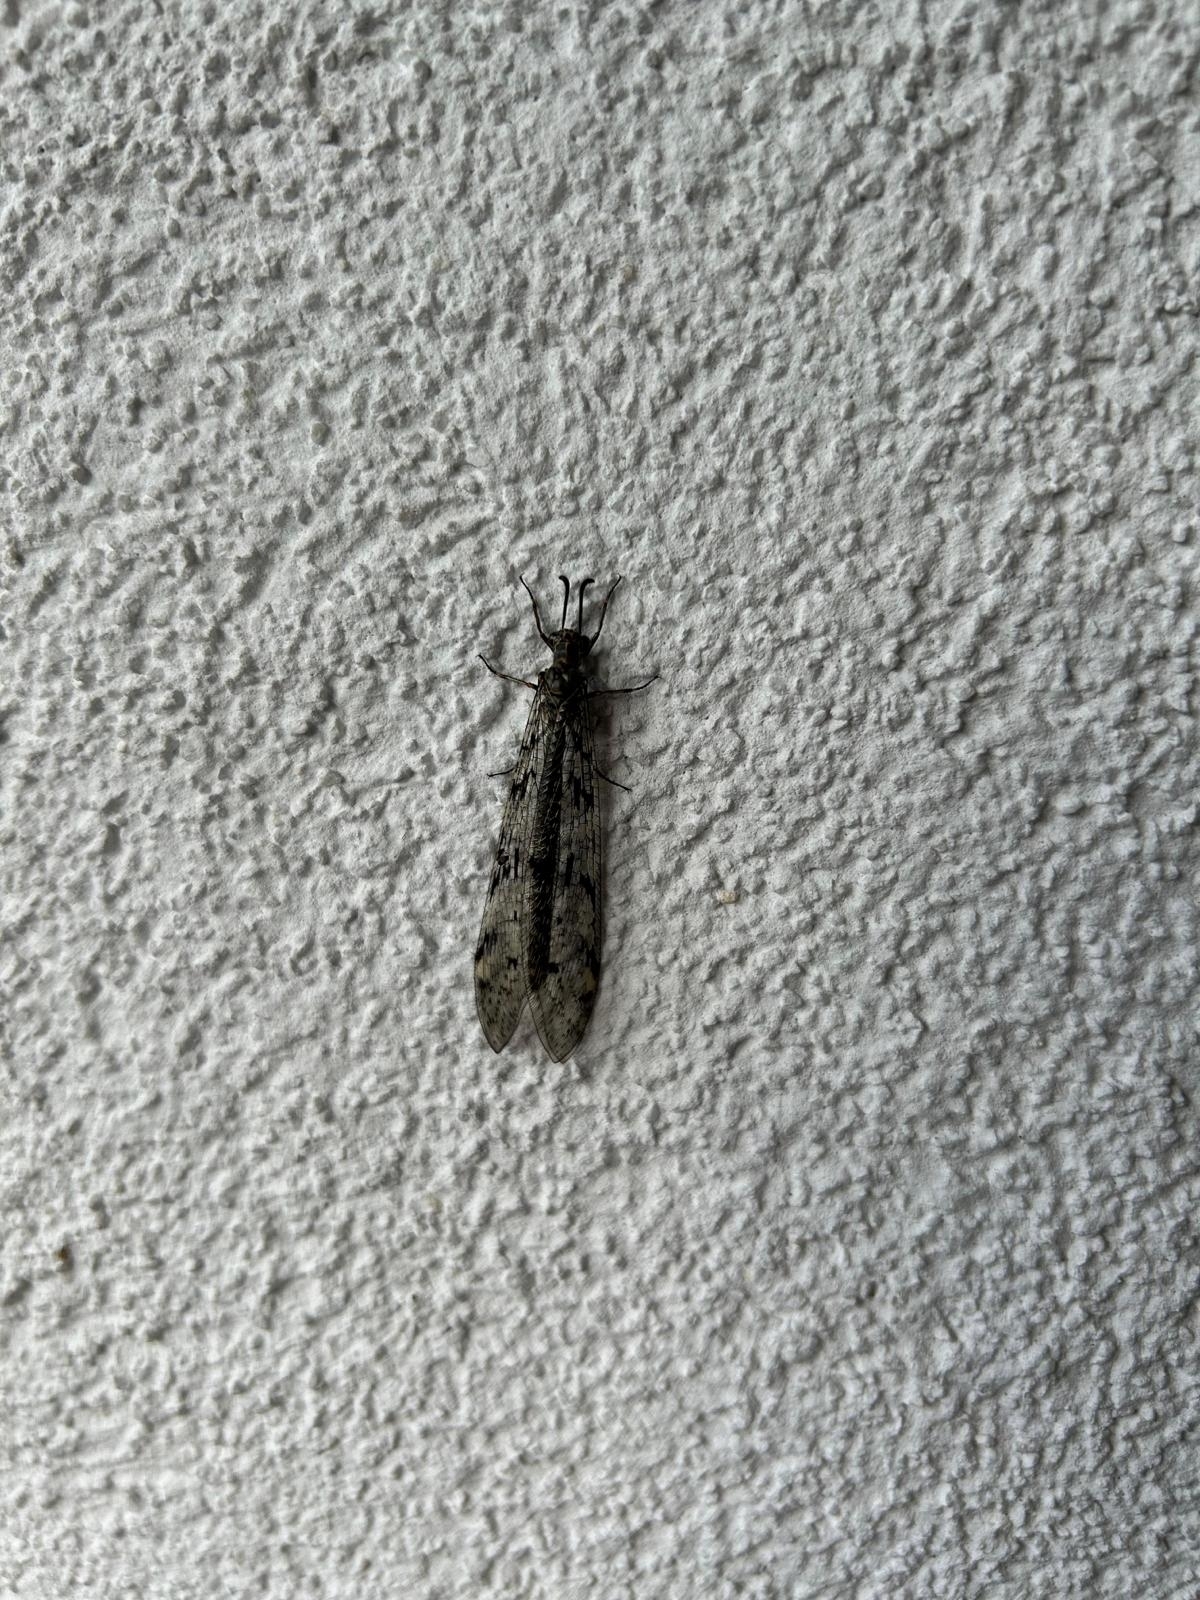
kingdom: Animalia
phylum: Arthropoda
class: Insecta
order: Neuroptera
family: Myrmeleontidae
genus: Euroleon
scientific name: Euroleon nostras
